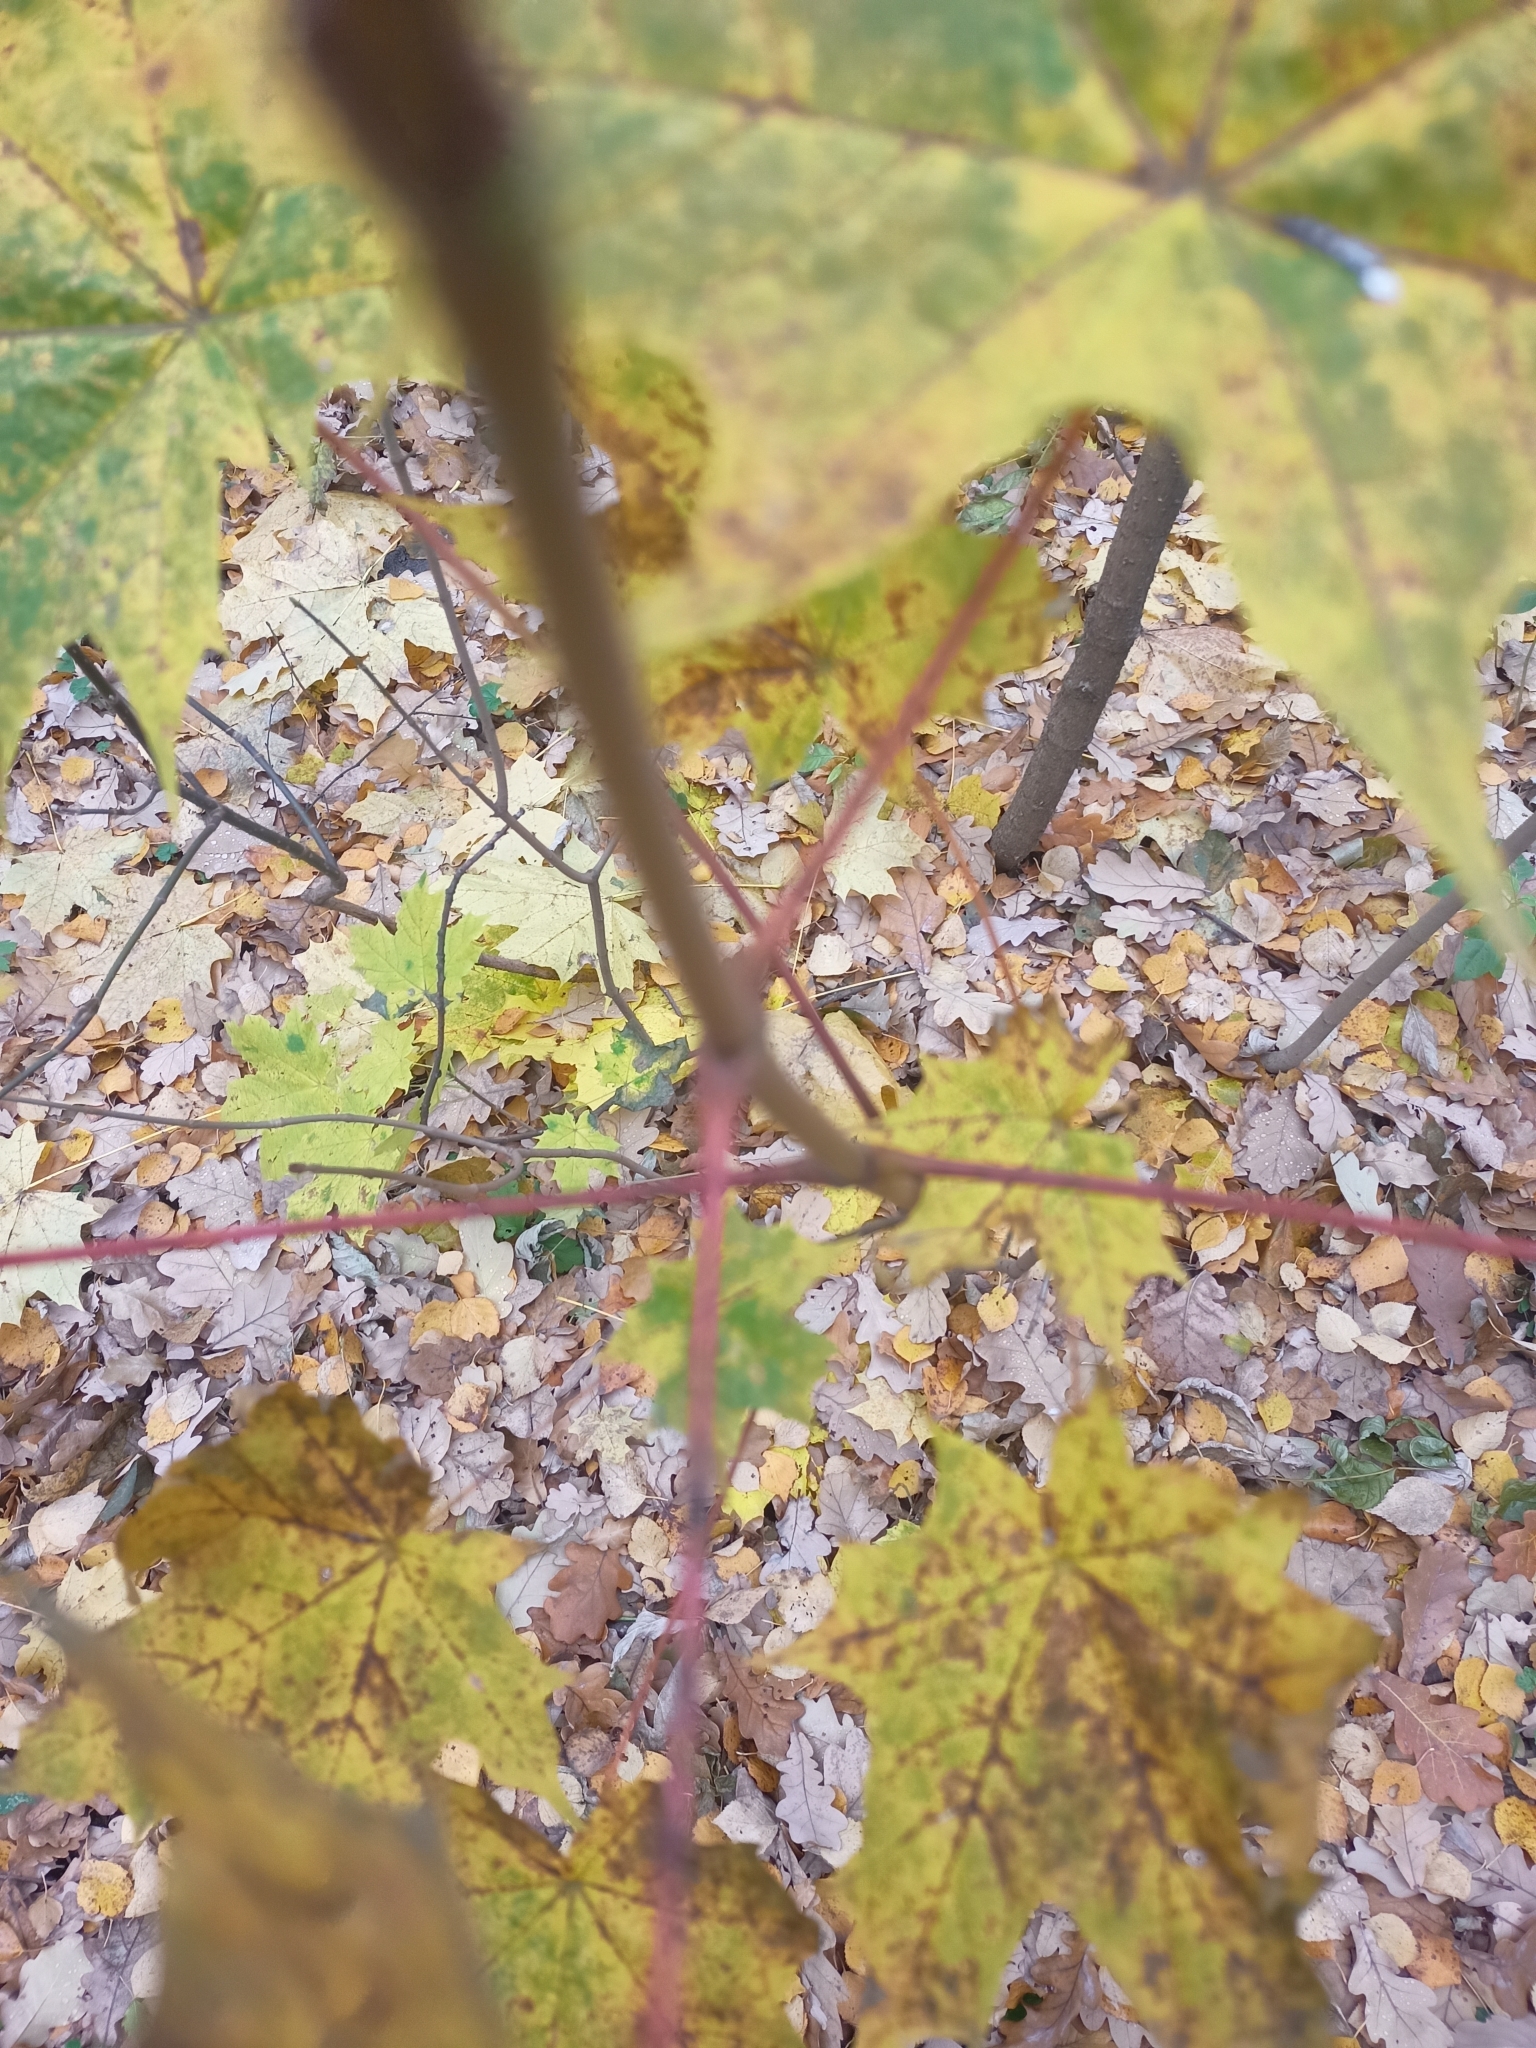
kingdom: Plantae
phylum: Tracheophyta
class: Magnoliopsida
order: Sapindales
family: Sapindaceae
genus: Acer
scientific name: Acer platanoides
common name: Norway maple
